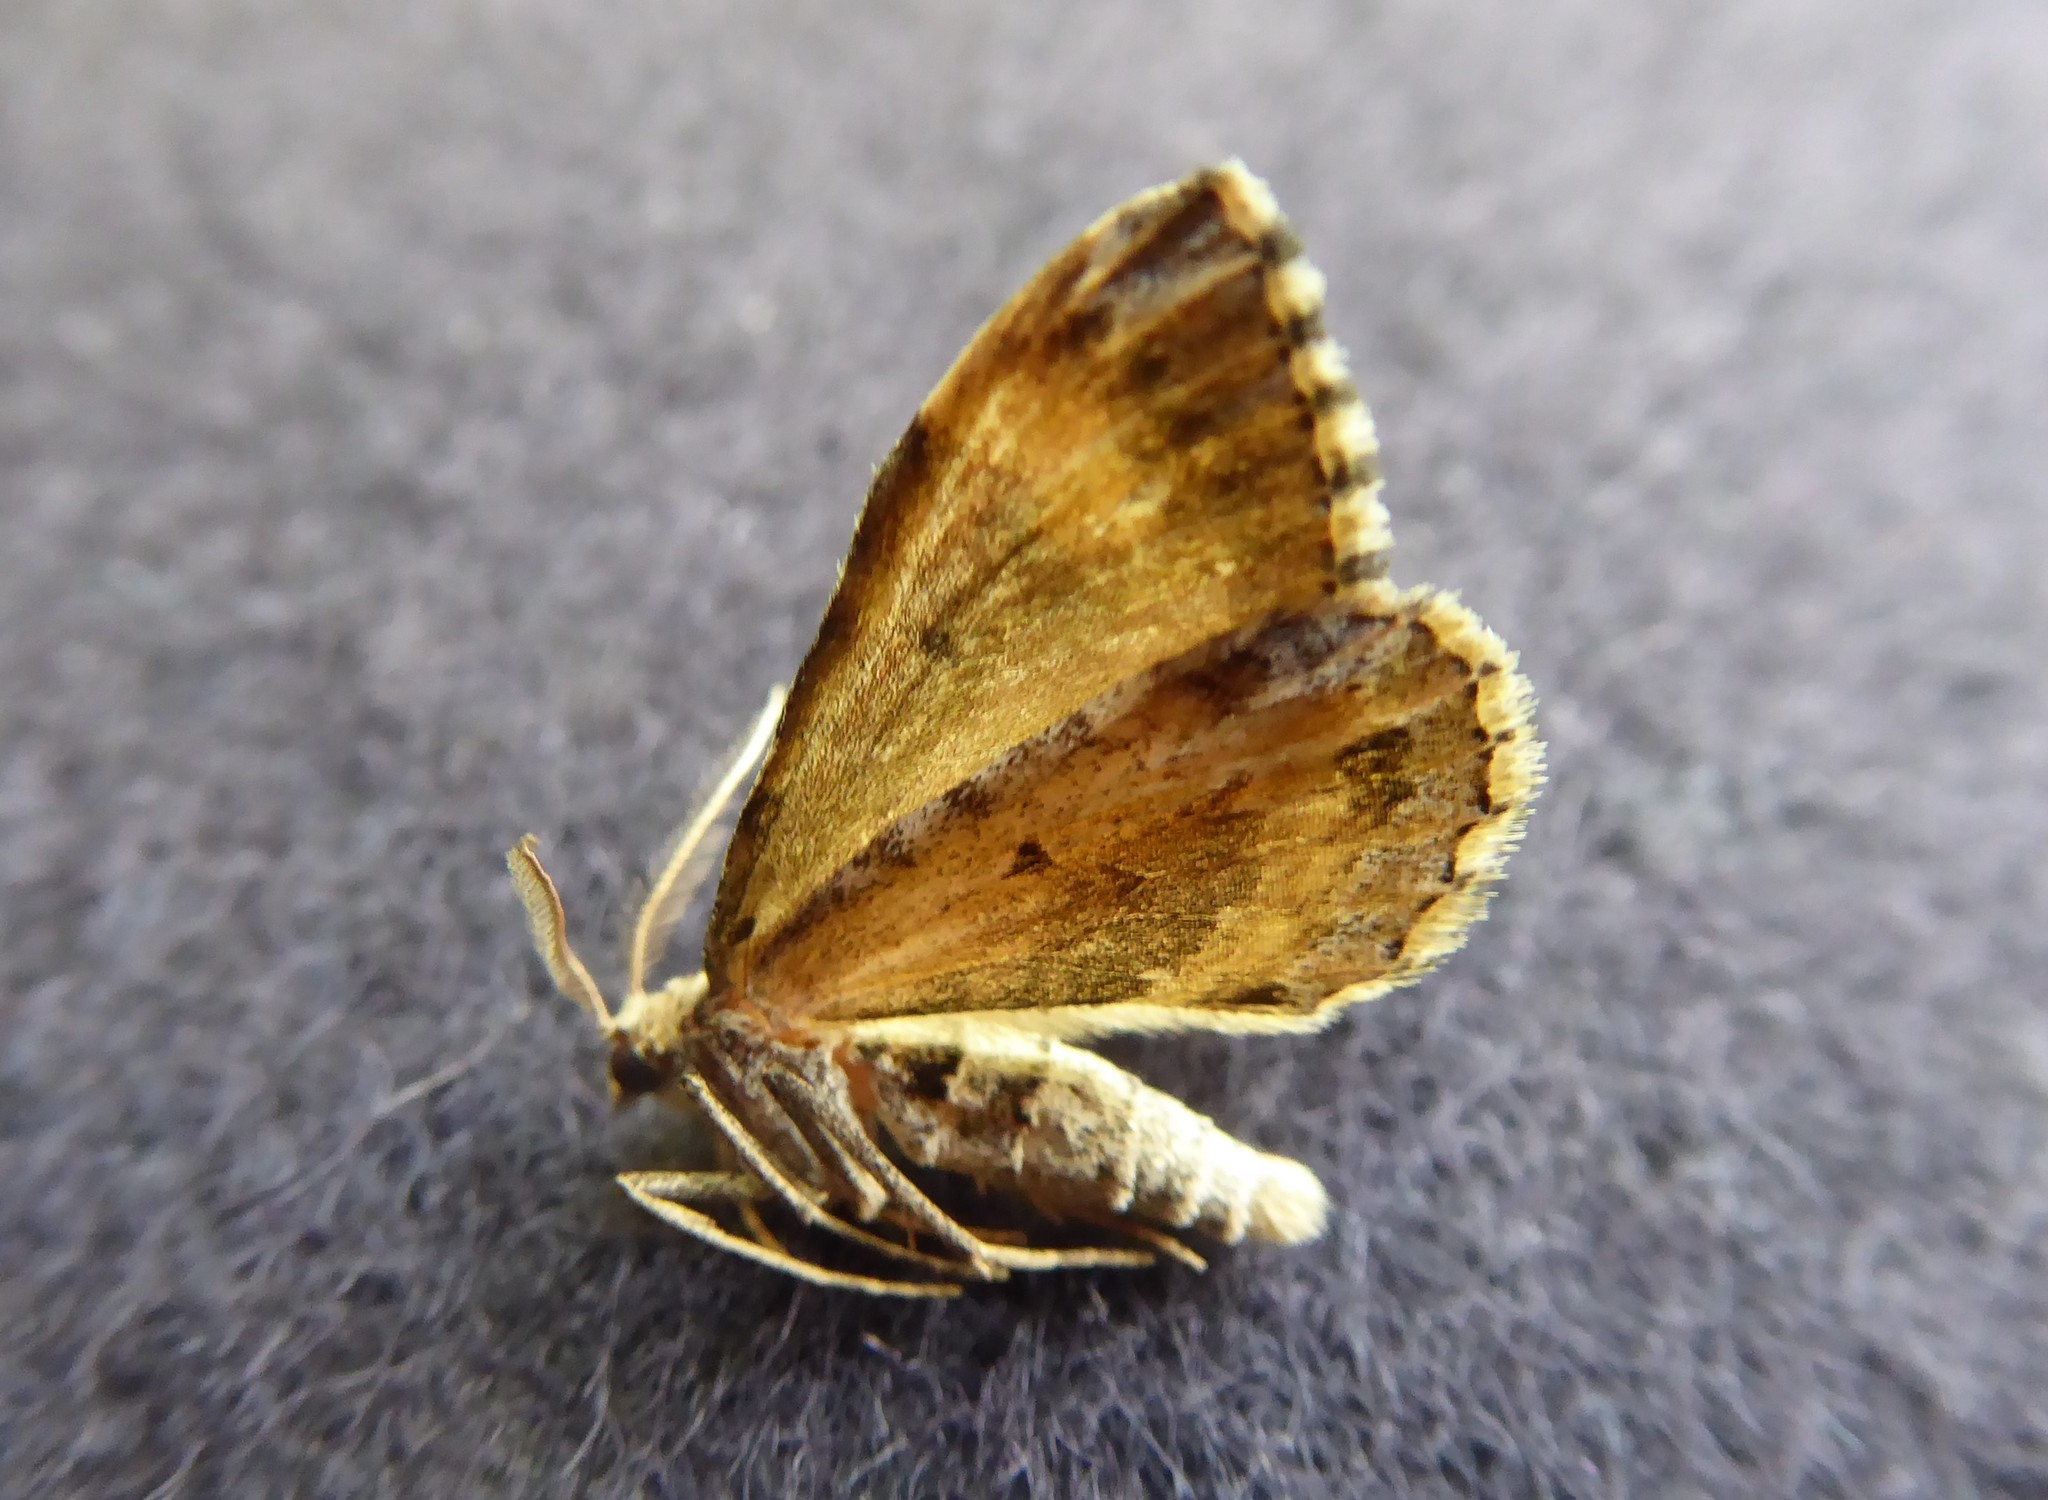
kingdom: Animalia
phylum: Arthropoda
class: Insecta
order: Lepidoptera
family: Geometridae
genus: Asaphodes
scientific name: Asaphodes aegrota
